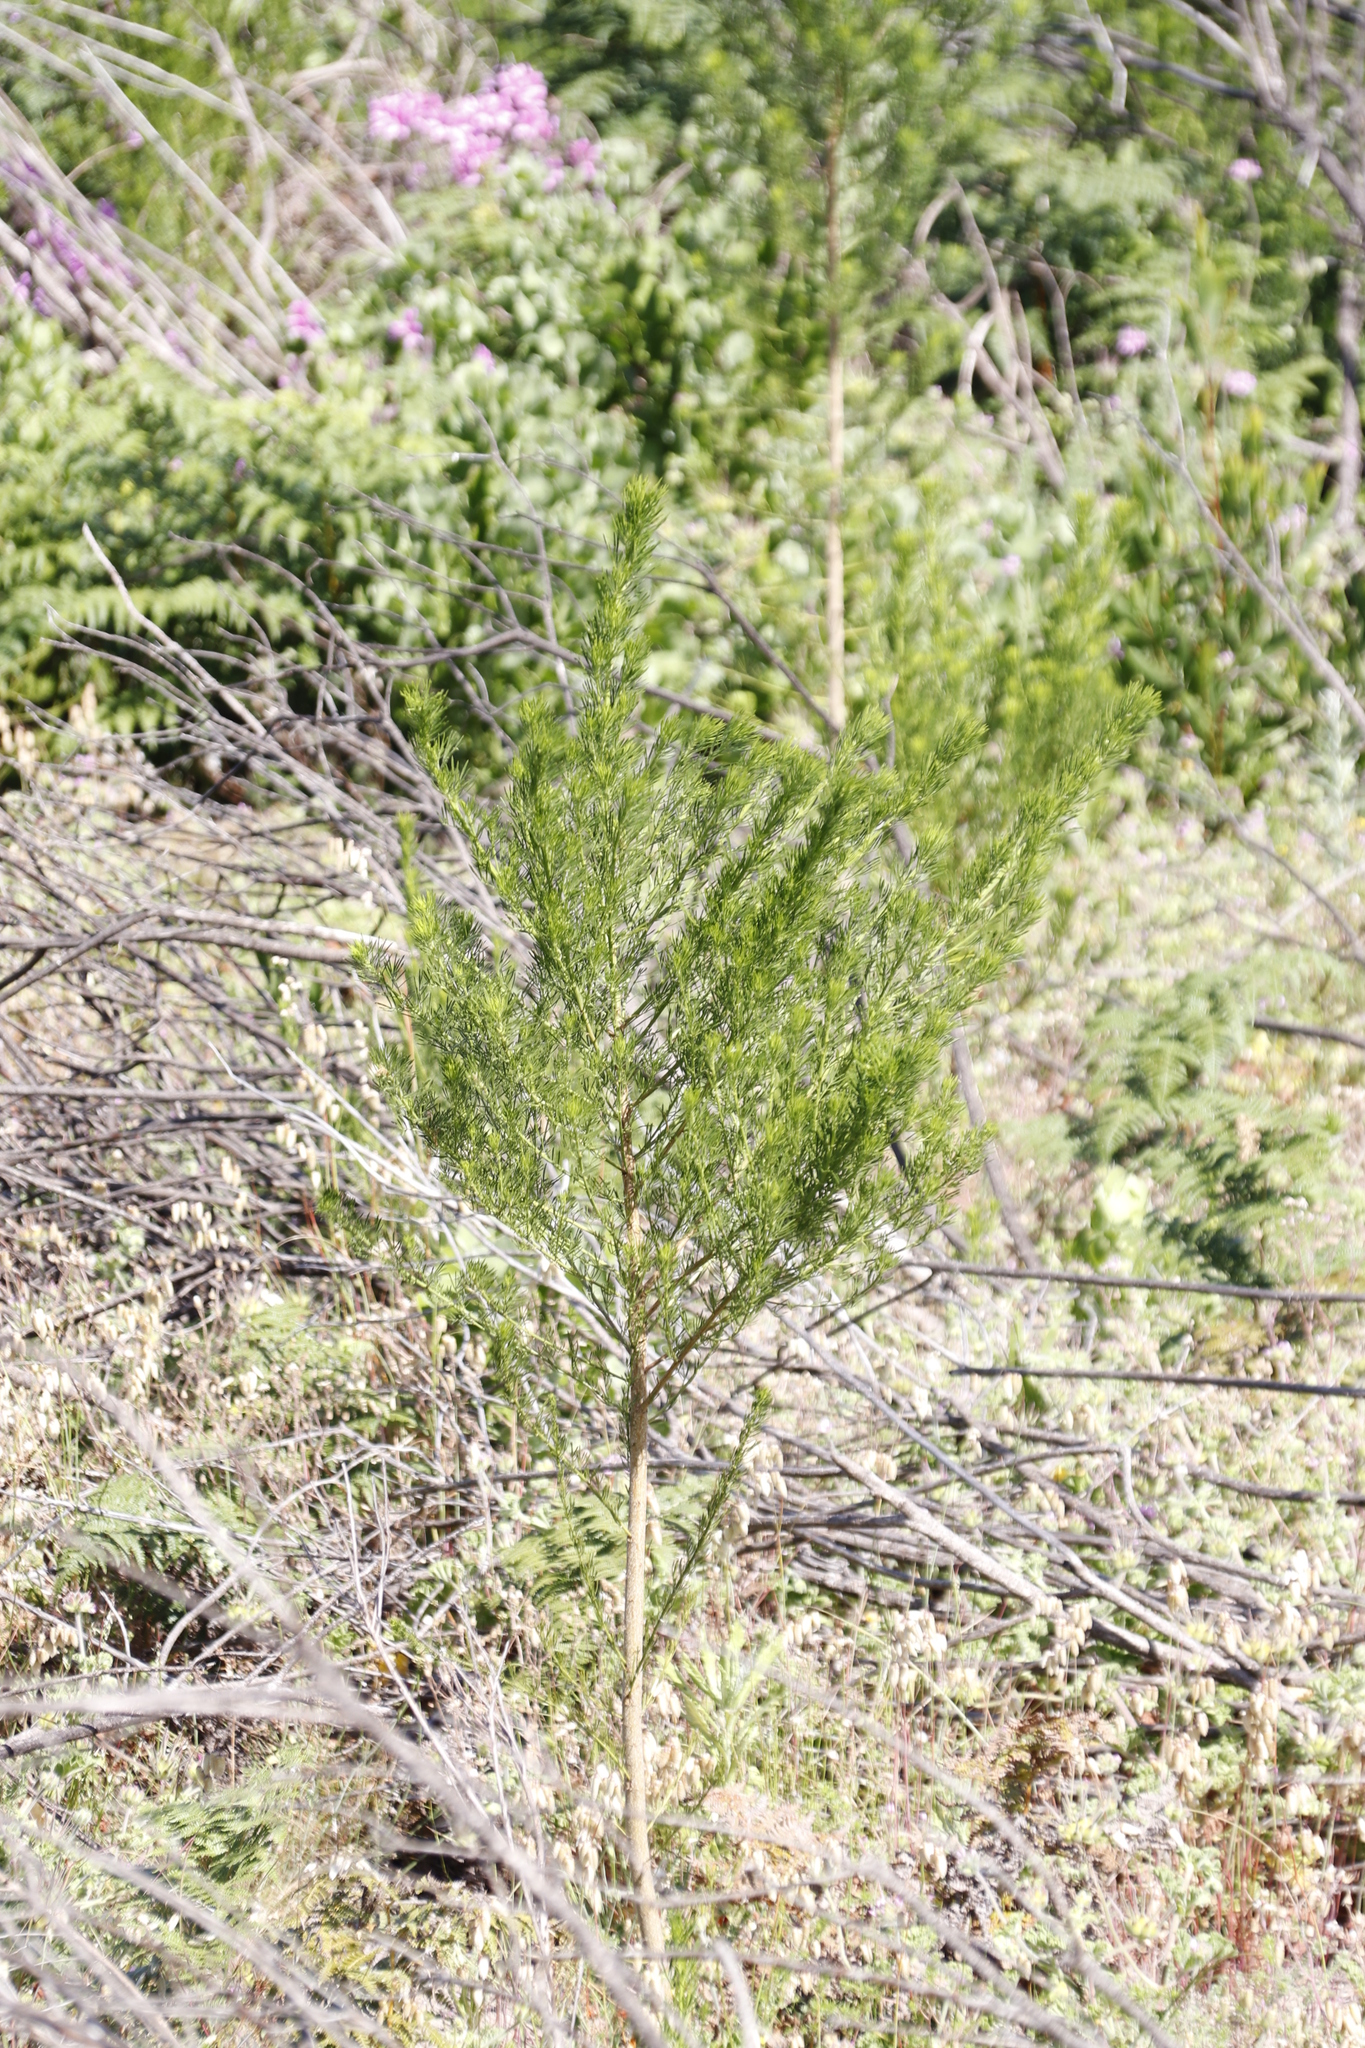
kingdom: Plantae
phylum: Tracheophyta
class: Magnoliopsida
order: Fabales
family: Fabaceae
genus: Psoralea
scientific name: Psoralea pinnata
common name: African scurfpea
